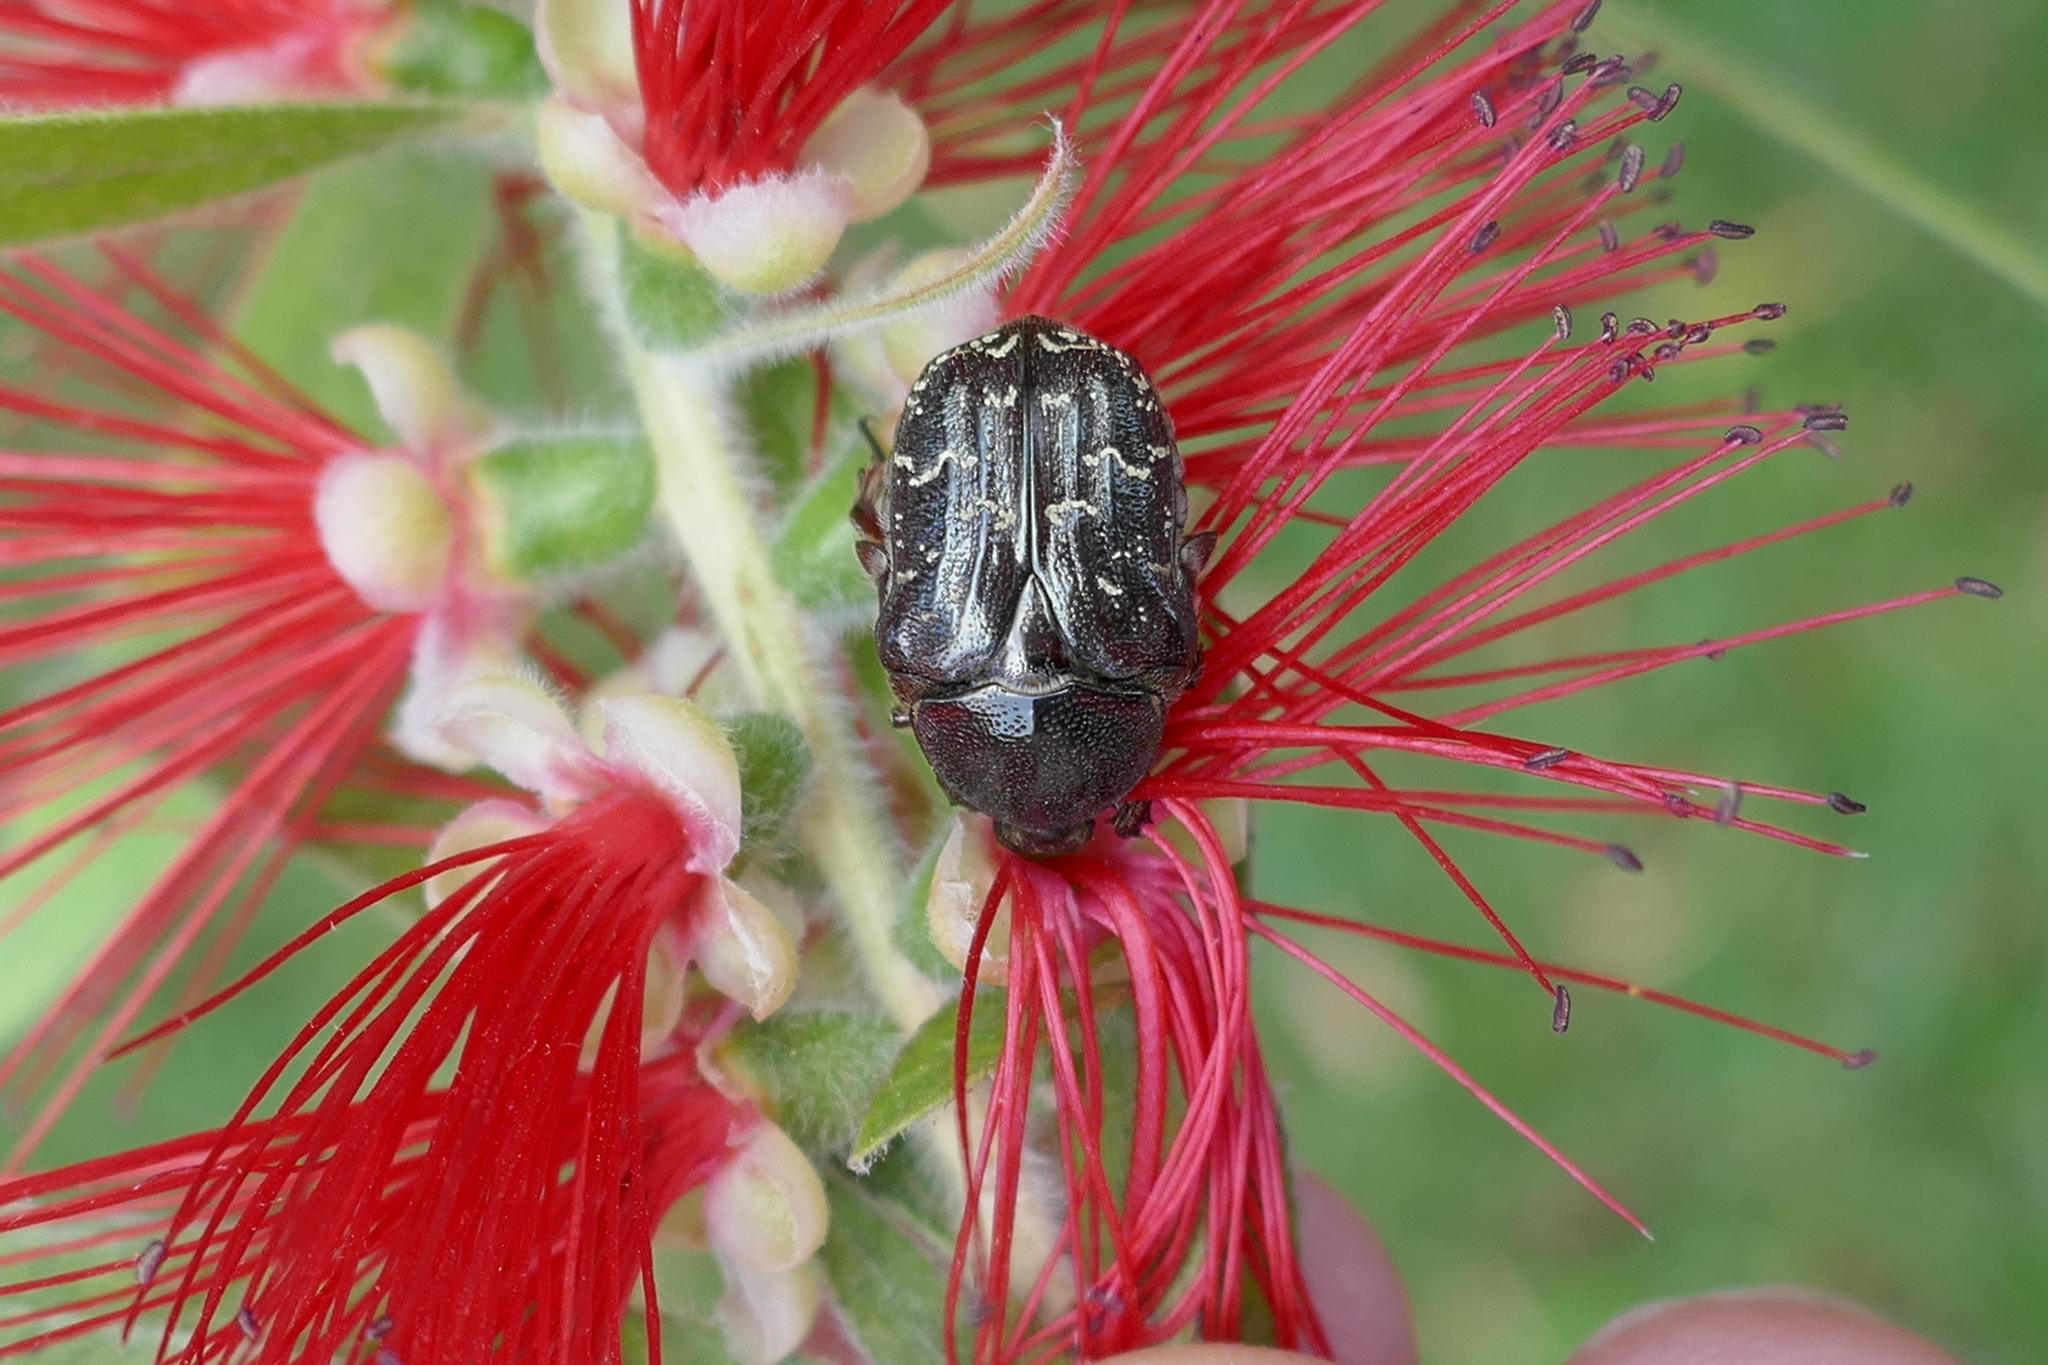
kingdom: Animalia
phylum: Arthropoda
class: Insecta
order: Coleoptera
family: Scarabaeidae
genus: Euphoria
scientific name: Euphoria sepulcralis
